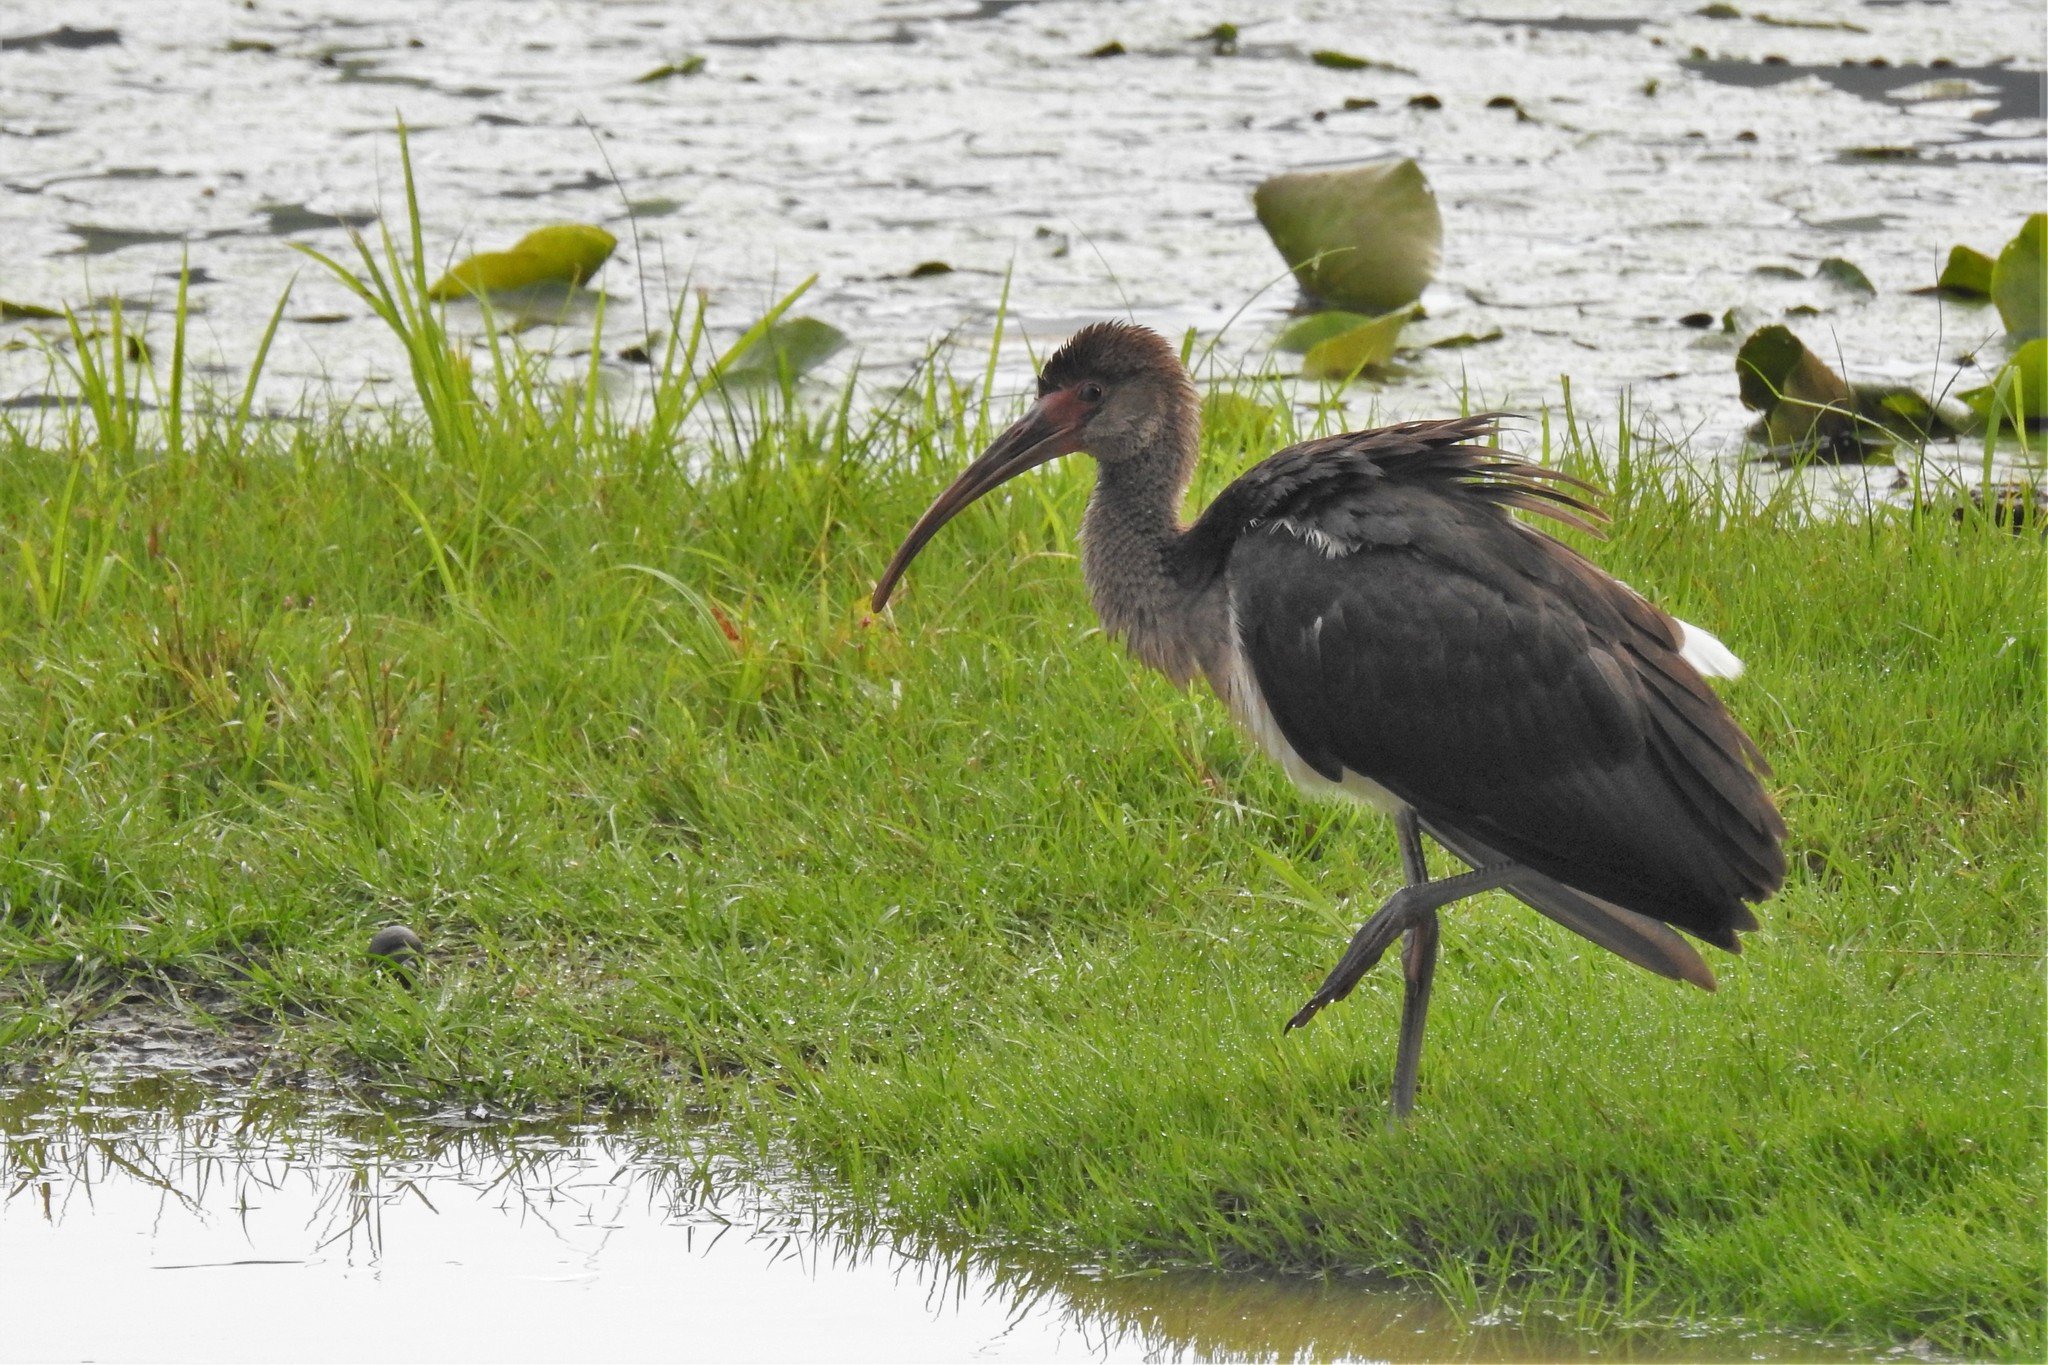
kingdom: Animalia
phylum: Chordata
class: Aves
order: Pelecaniformes
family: Threskiornithidae
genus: Eudocimus
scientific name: Eudocimus albus
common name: White ibis
